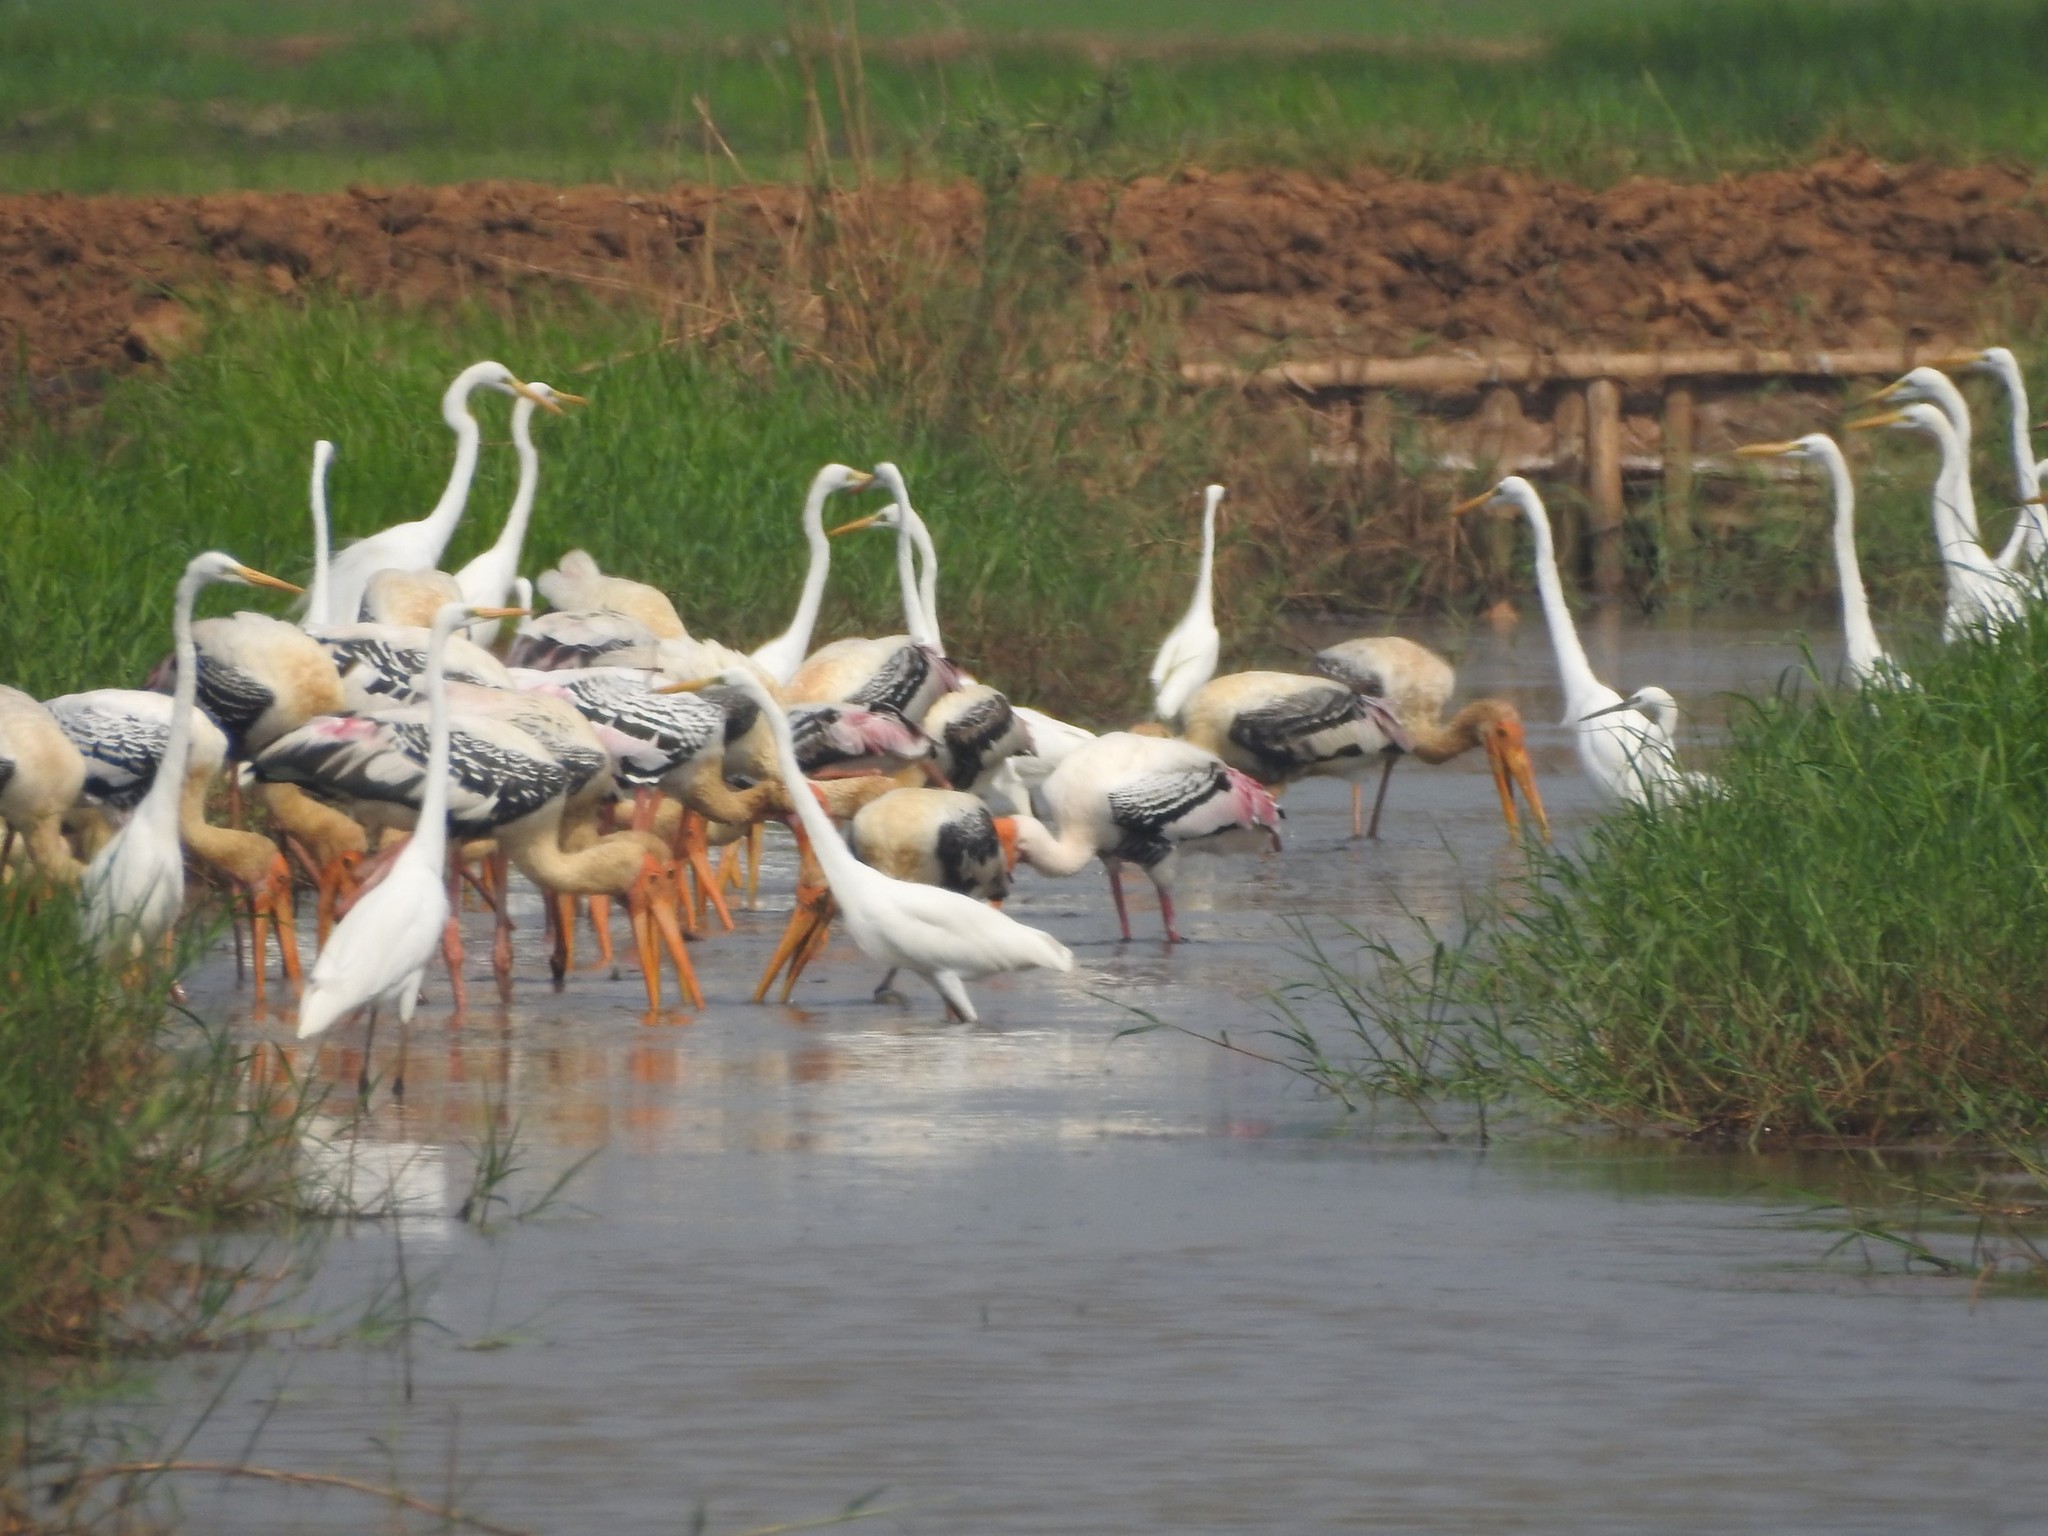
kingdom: Animalia
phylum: Chordata
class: Aves
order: Ciconiiformes
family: Ciconiidae
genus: Mycteria
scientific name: Mycteria leucocephala
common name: Painted stork
